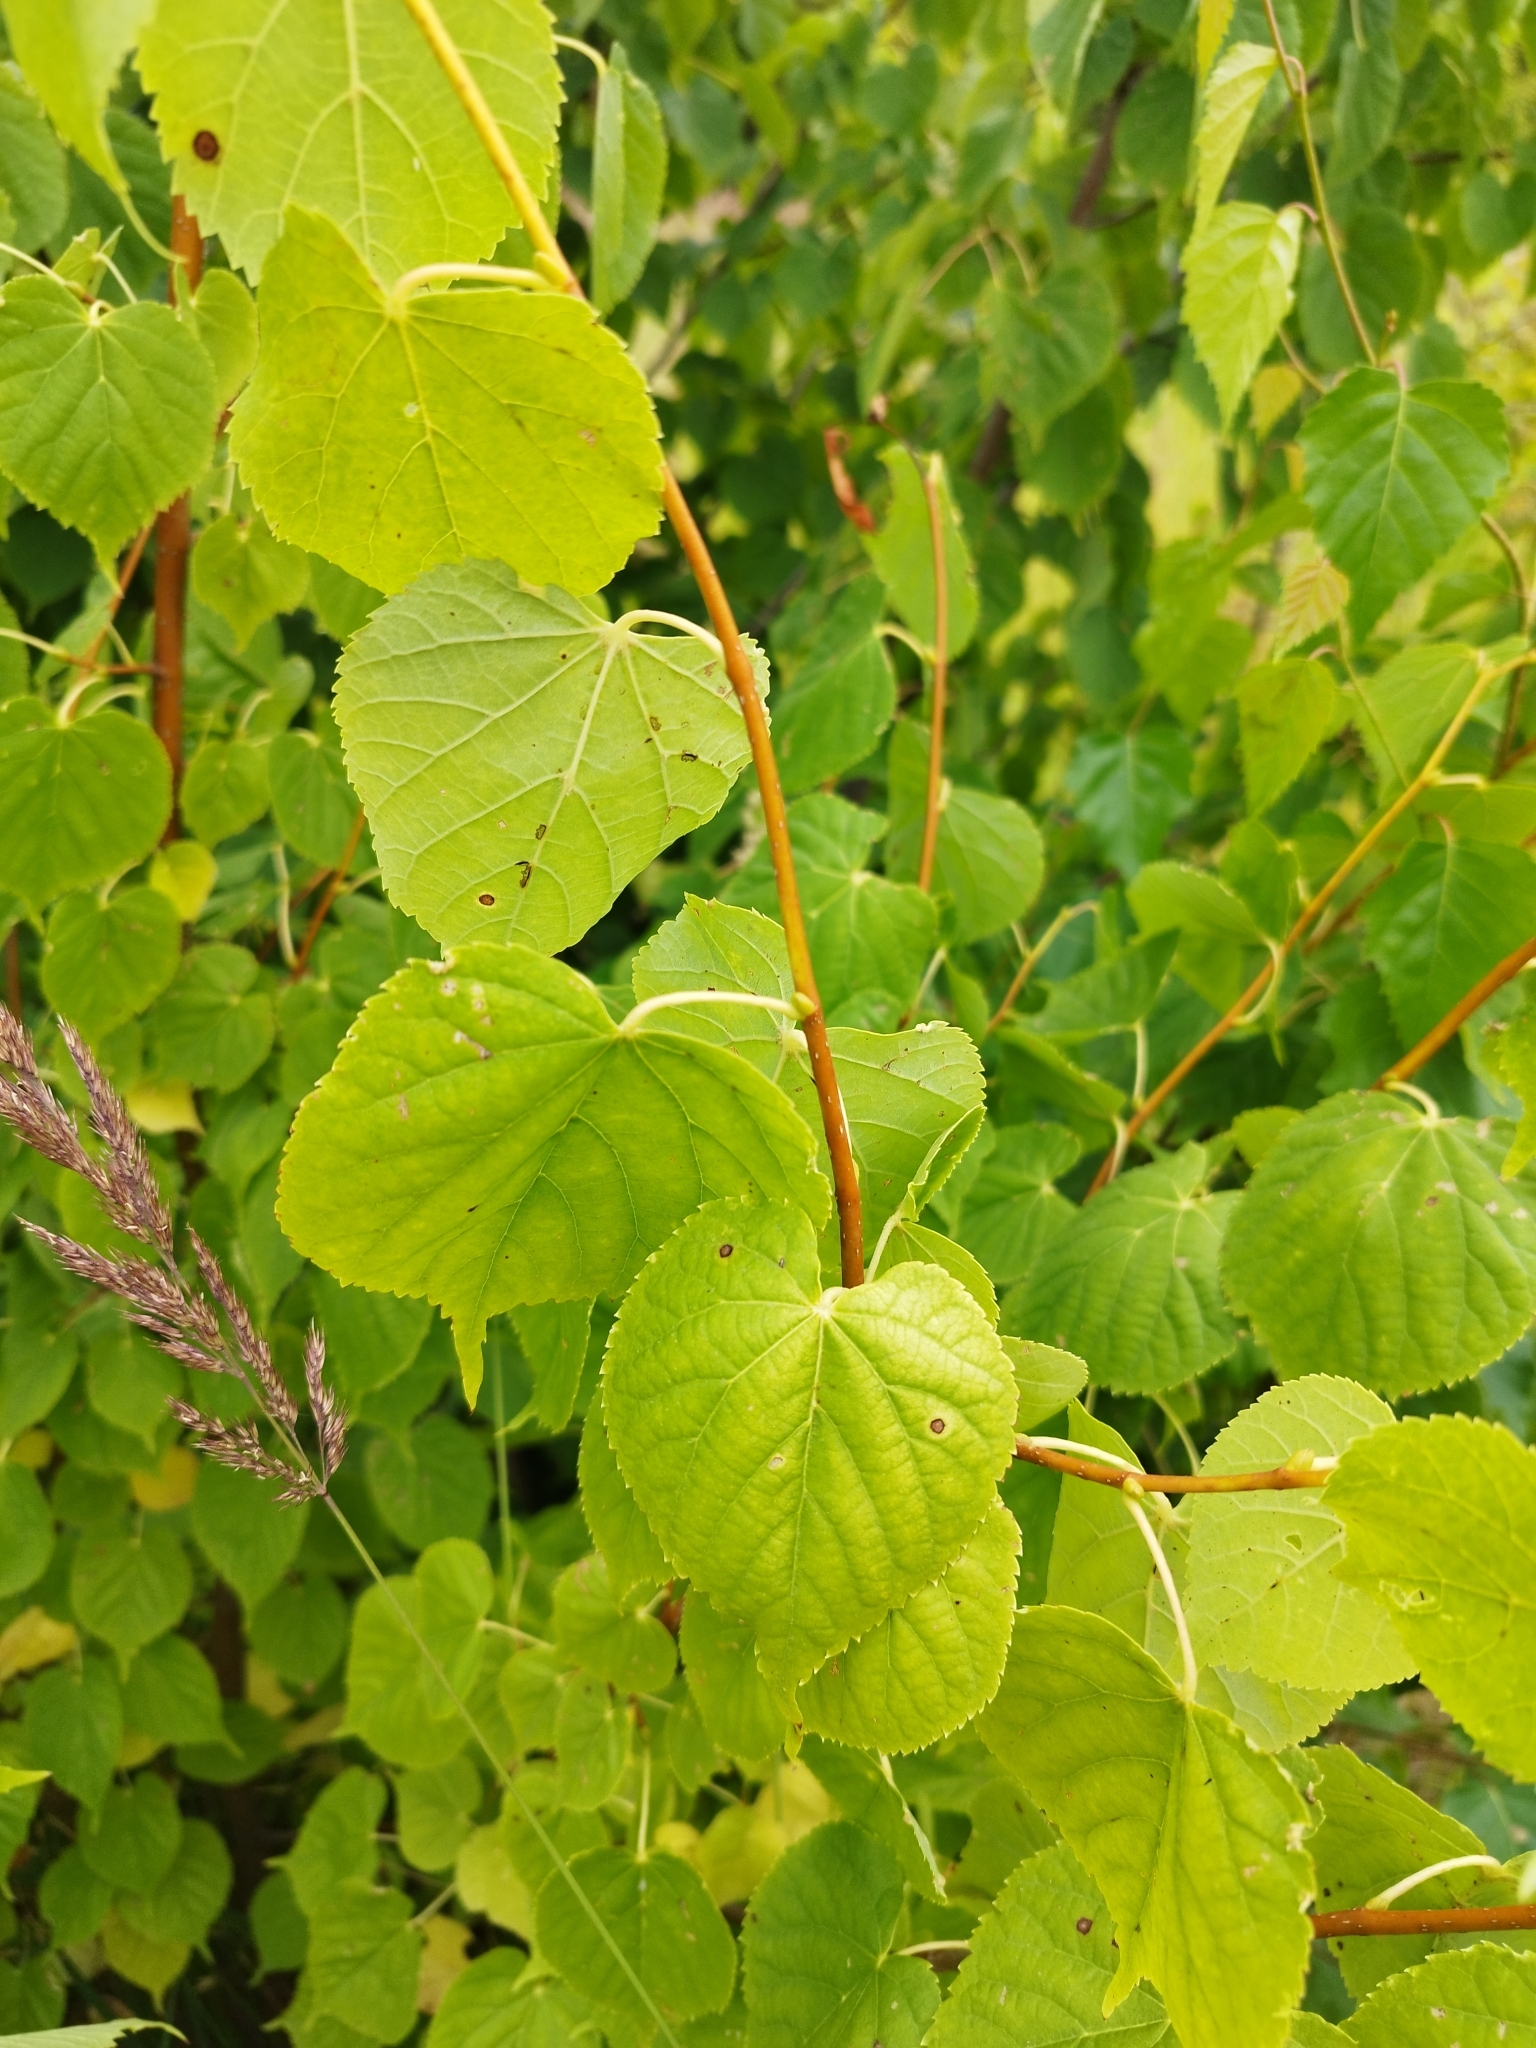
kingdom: Plantae
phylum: Tracheophyta
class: Magnoliopsida
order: Malvales
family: Malvaceae
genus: Tilia
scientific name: Tilia cordata
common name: Small-leaved lime
